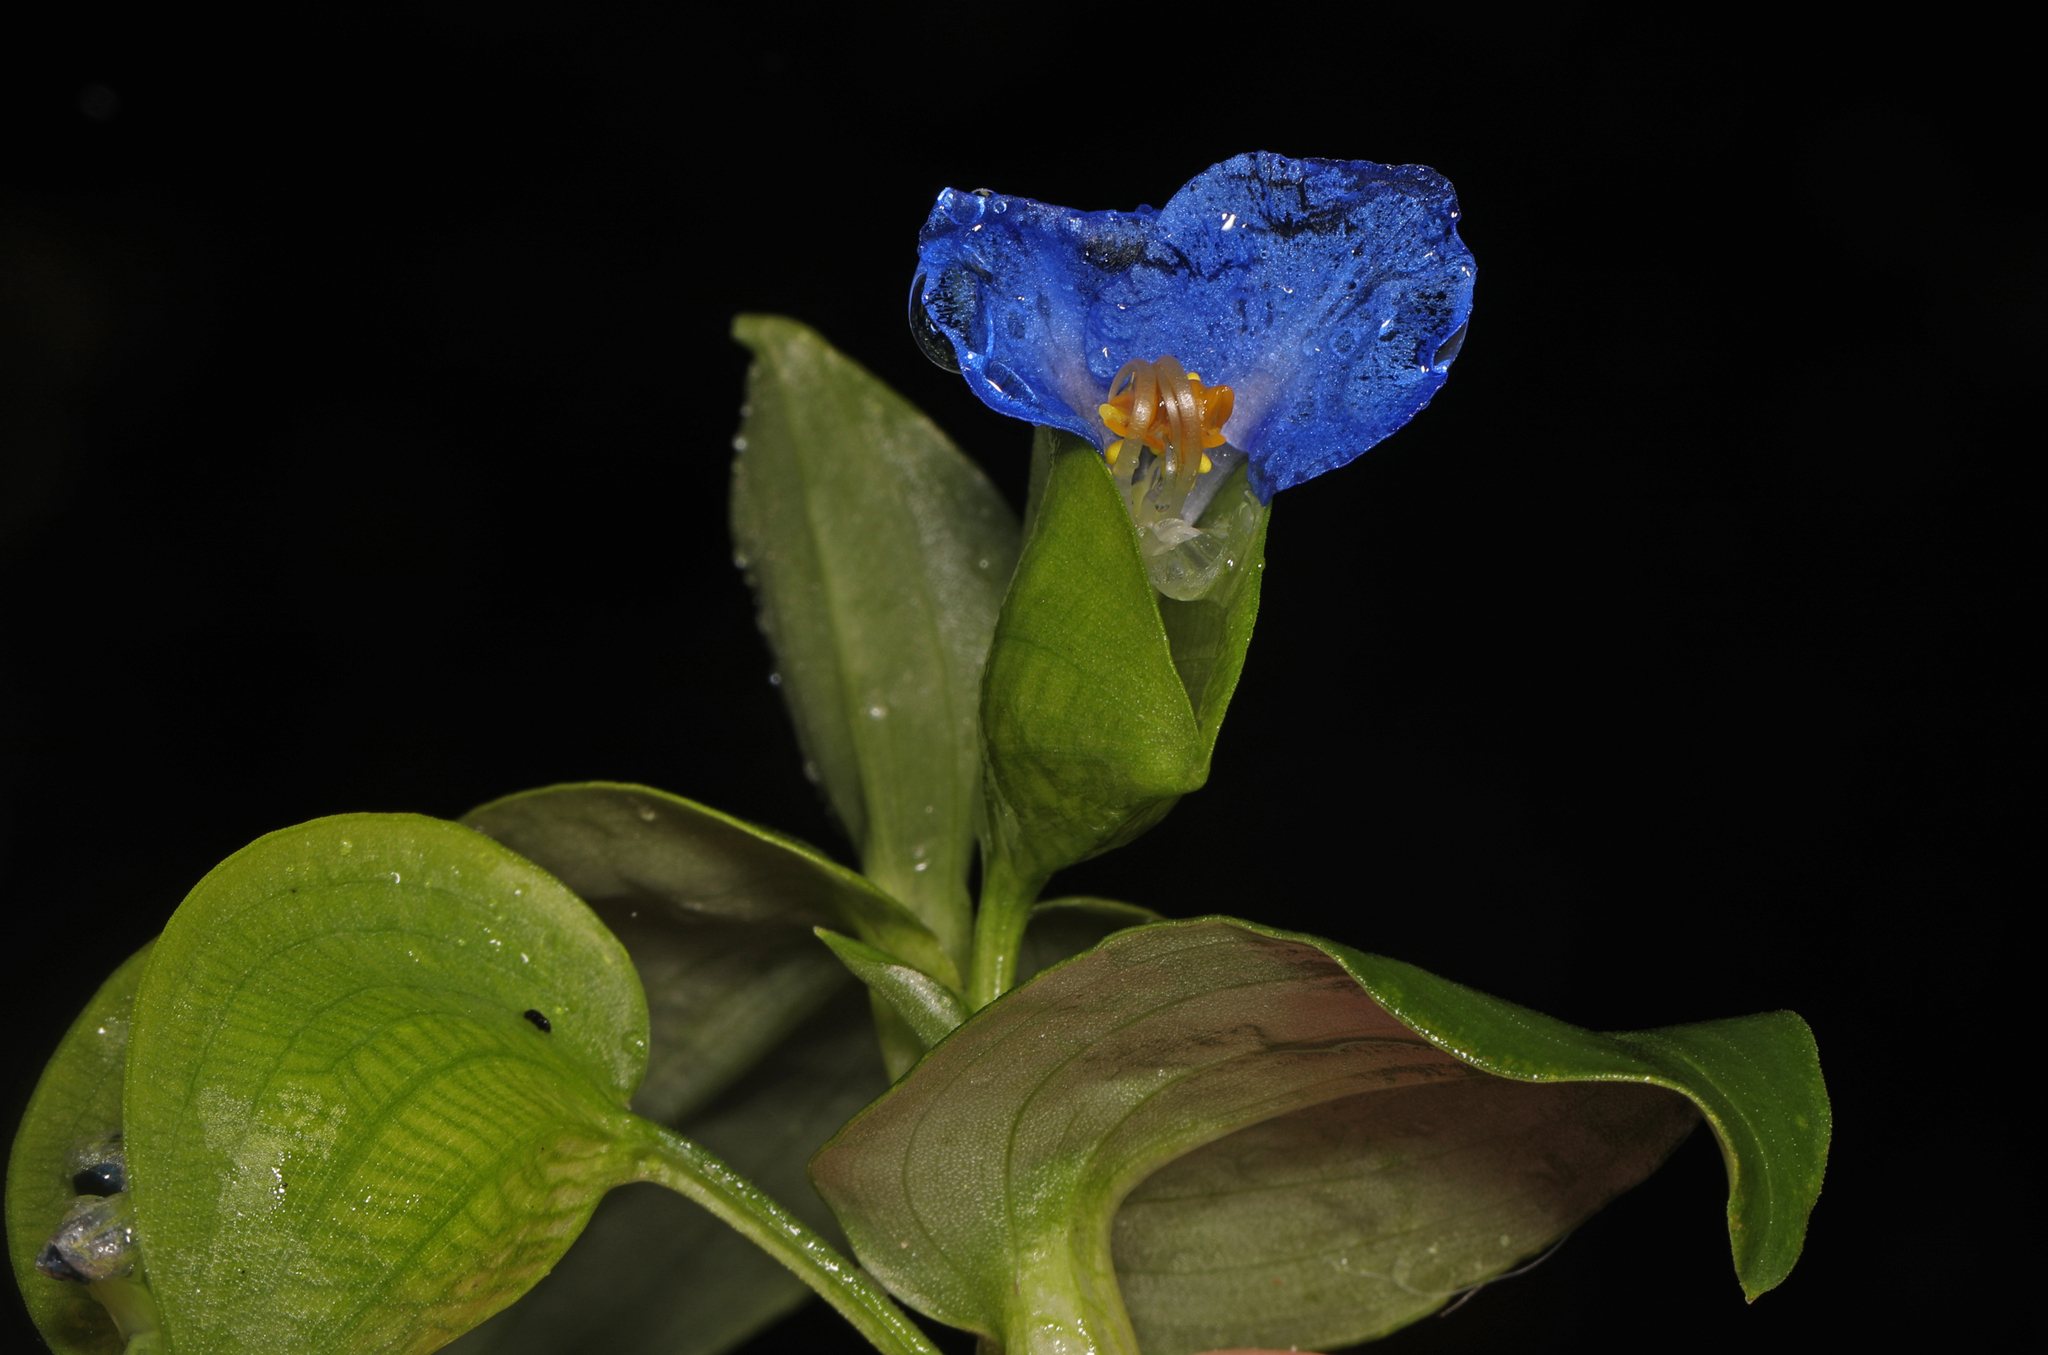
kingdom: Plantae
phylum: Tracheophyta
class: Liliopsida
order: Commelinales
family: Commelinaceae
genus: Commelina
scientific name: Commelina communis
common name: Asiatic dayflower
